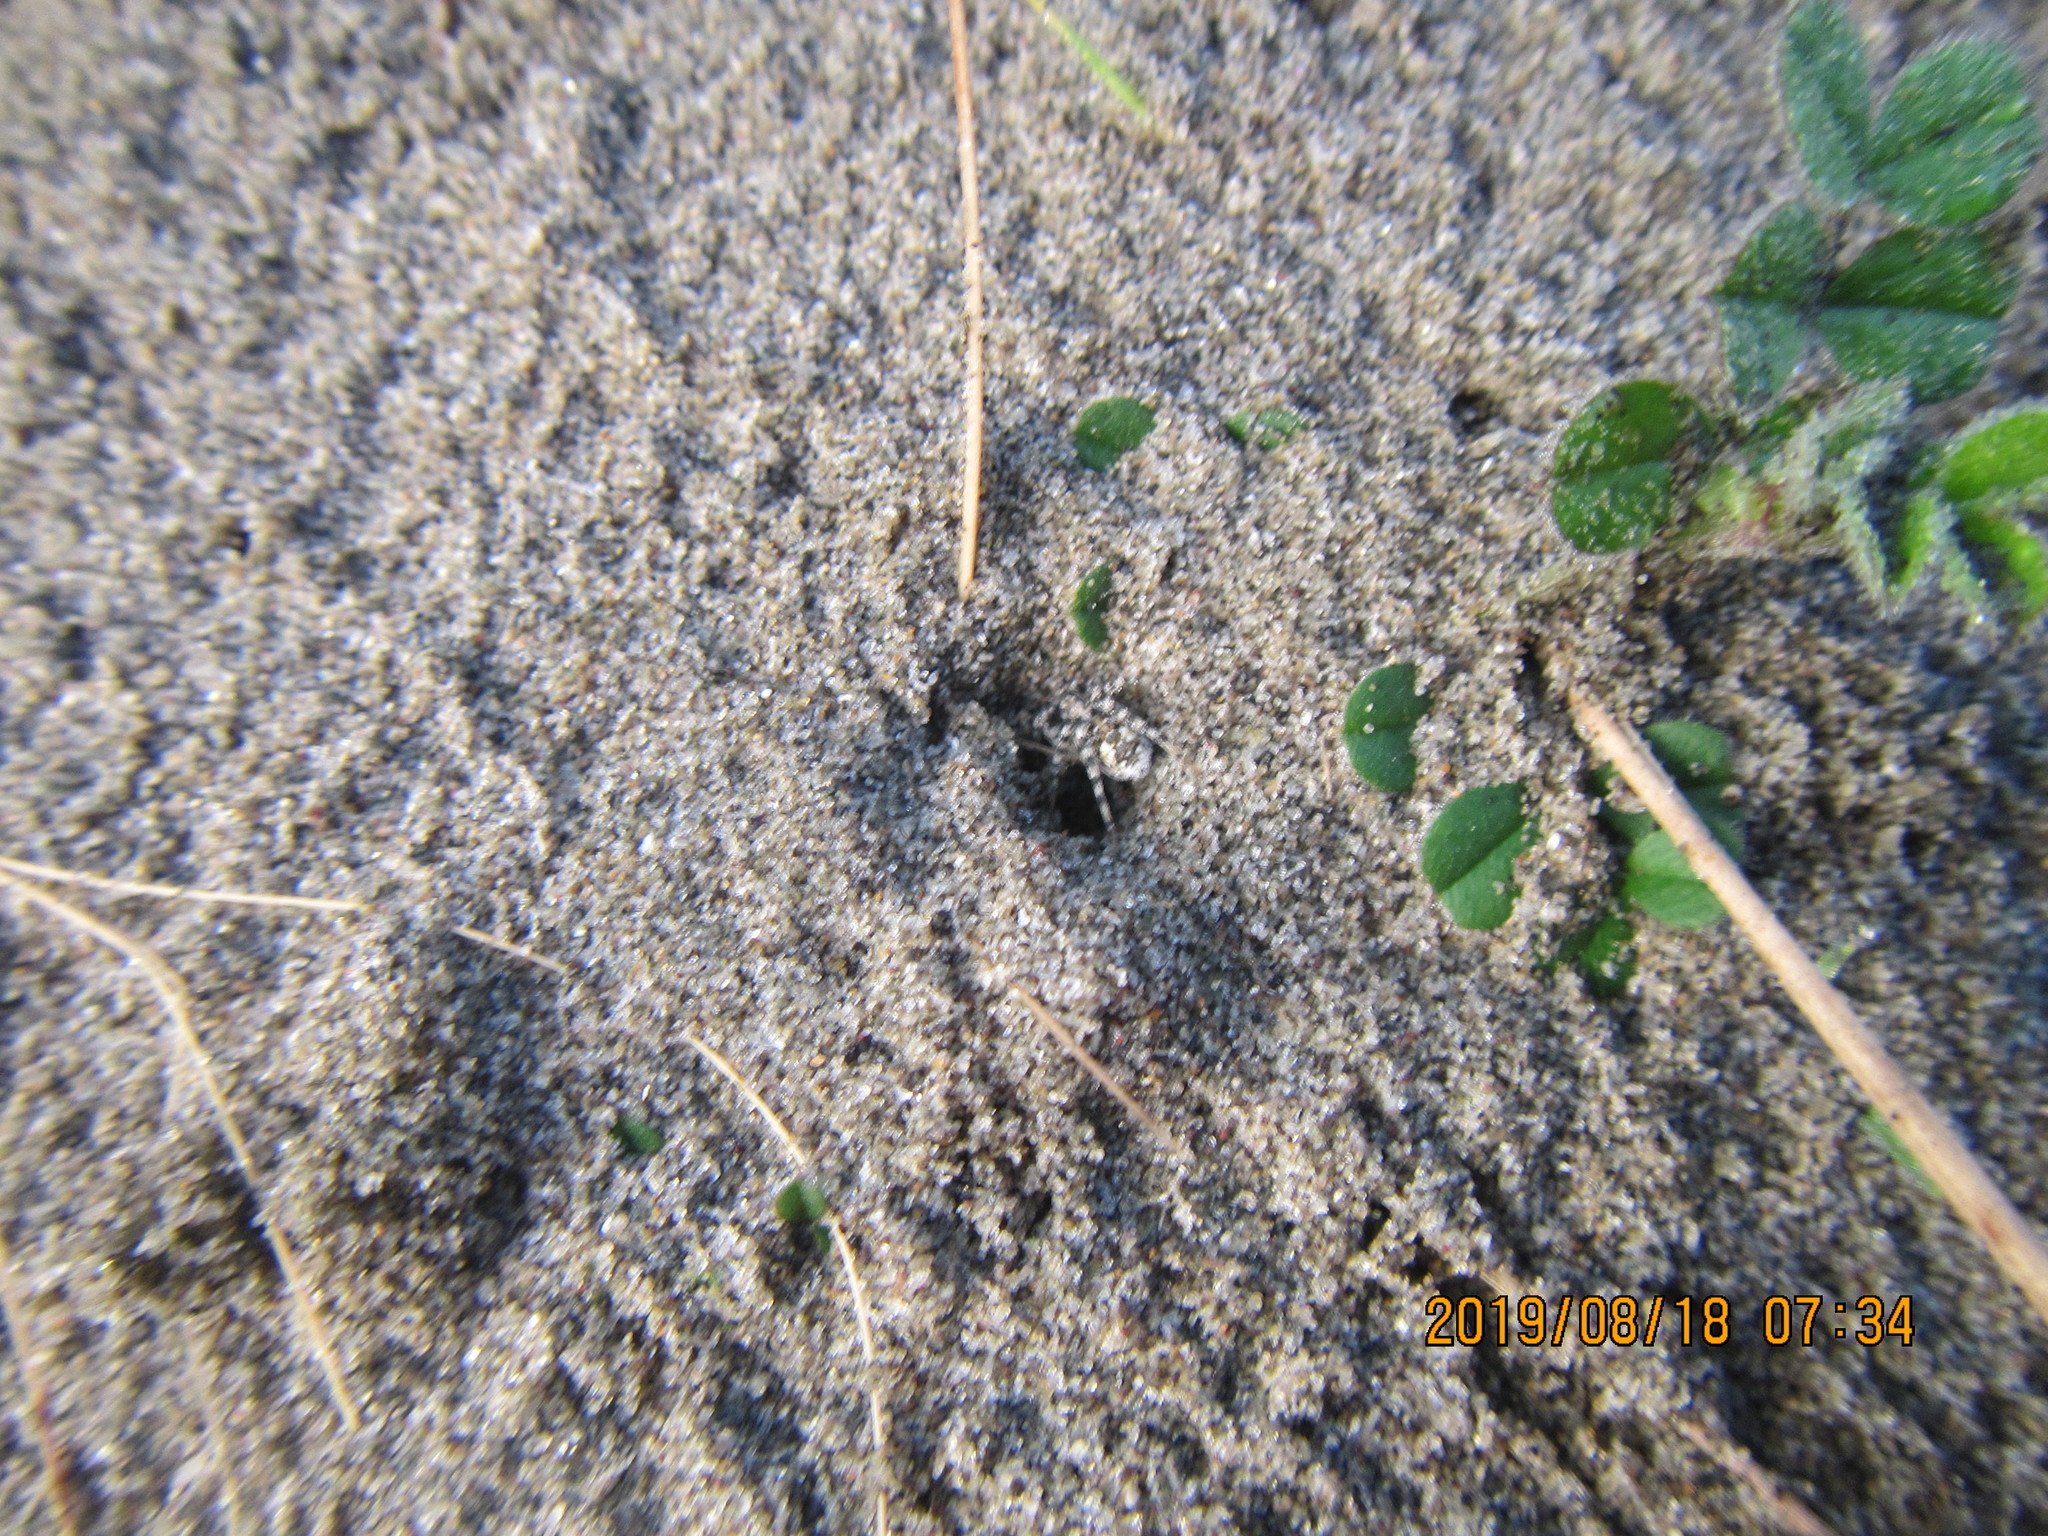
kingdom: Animalia
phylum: Arthropoda
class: Arachnida
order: Araneae
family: Lycosidae
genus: Anoteropsis
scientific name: Anoteropsis litoralis
